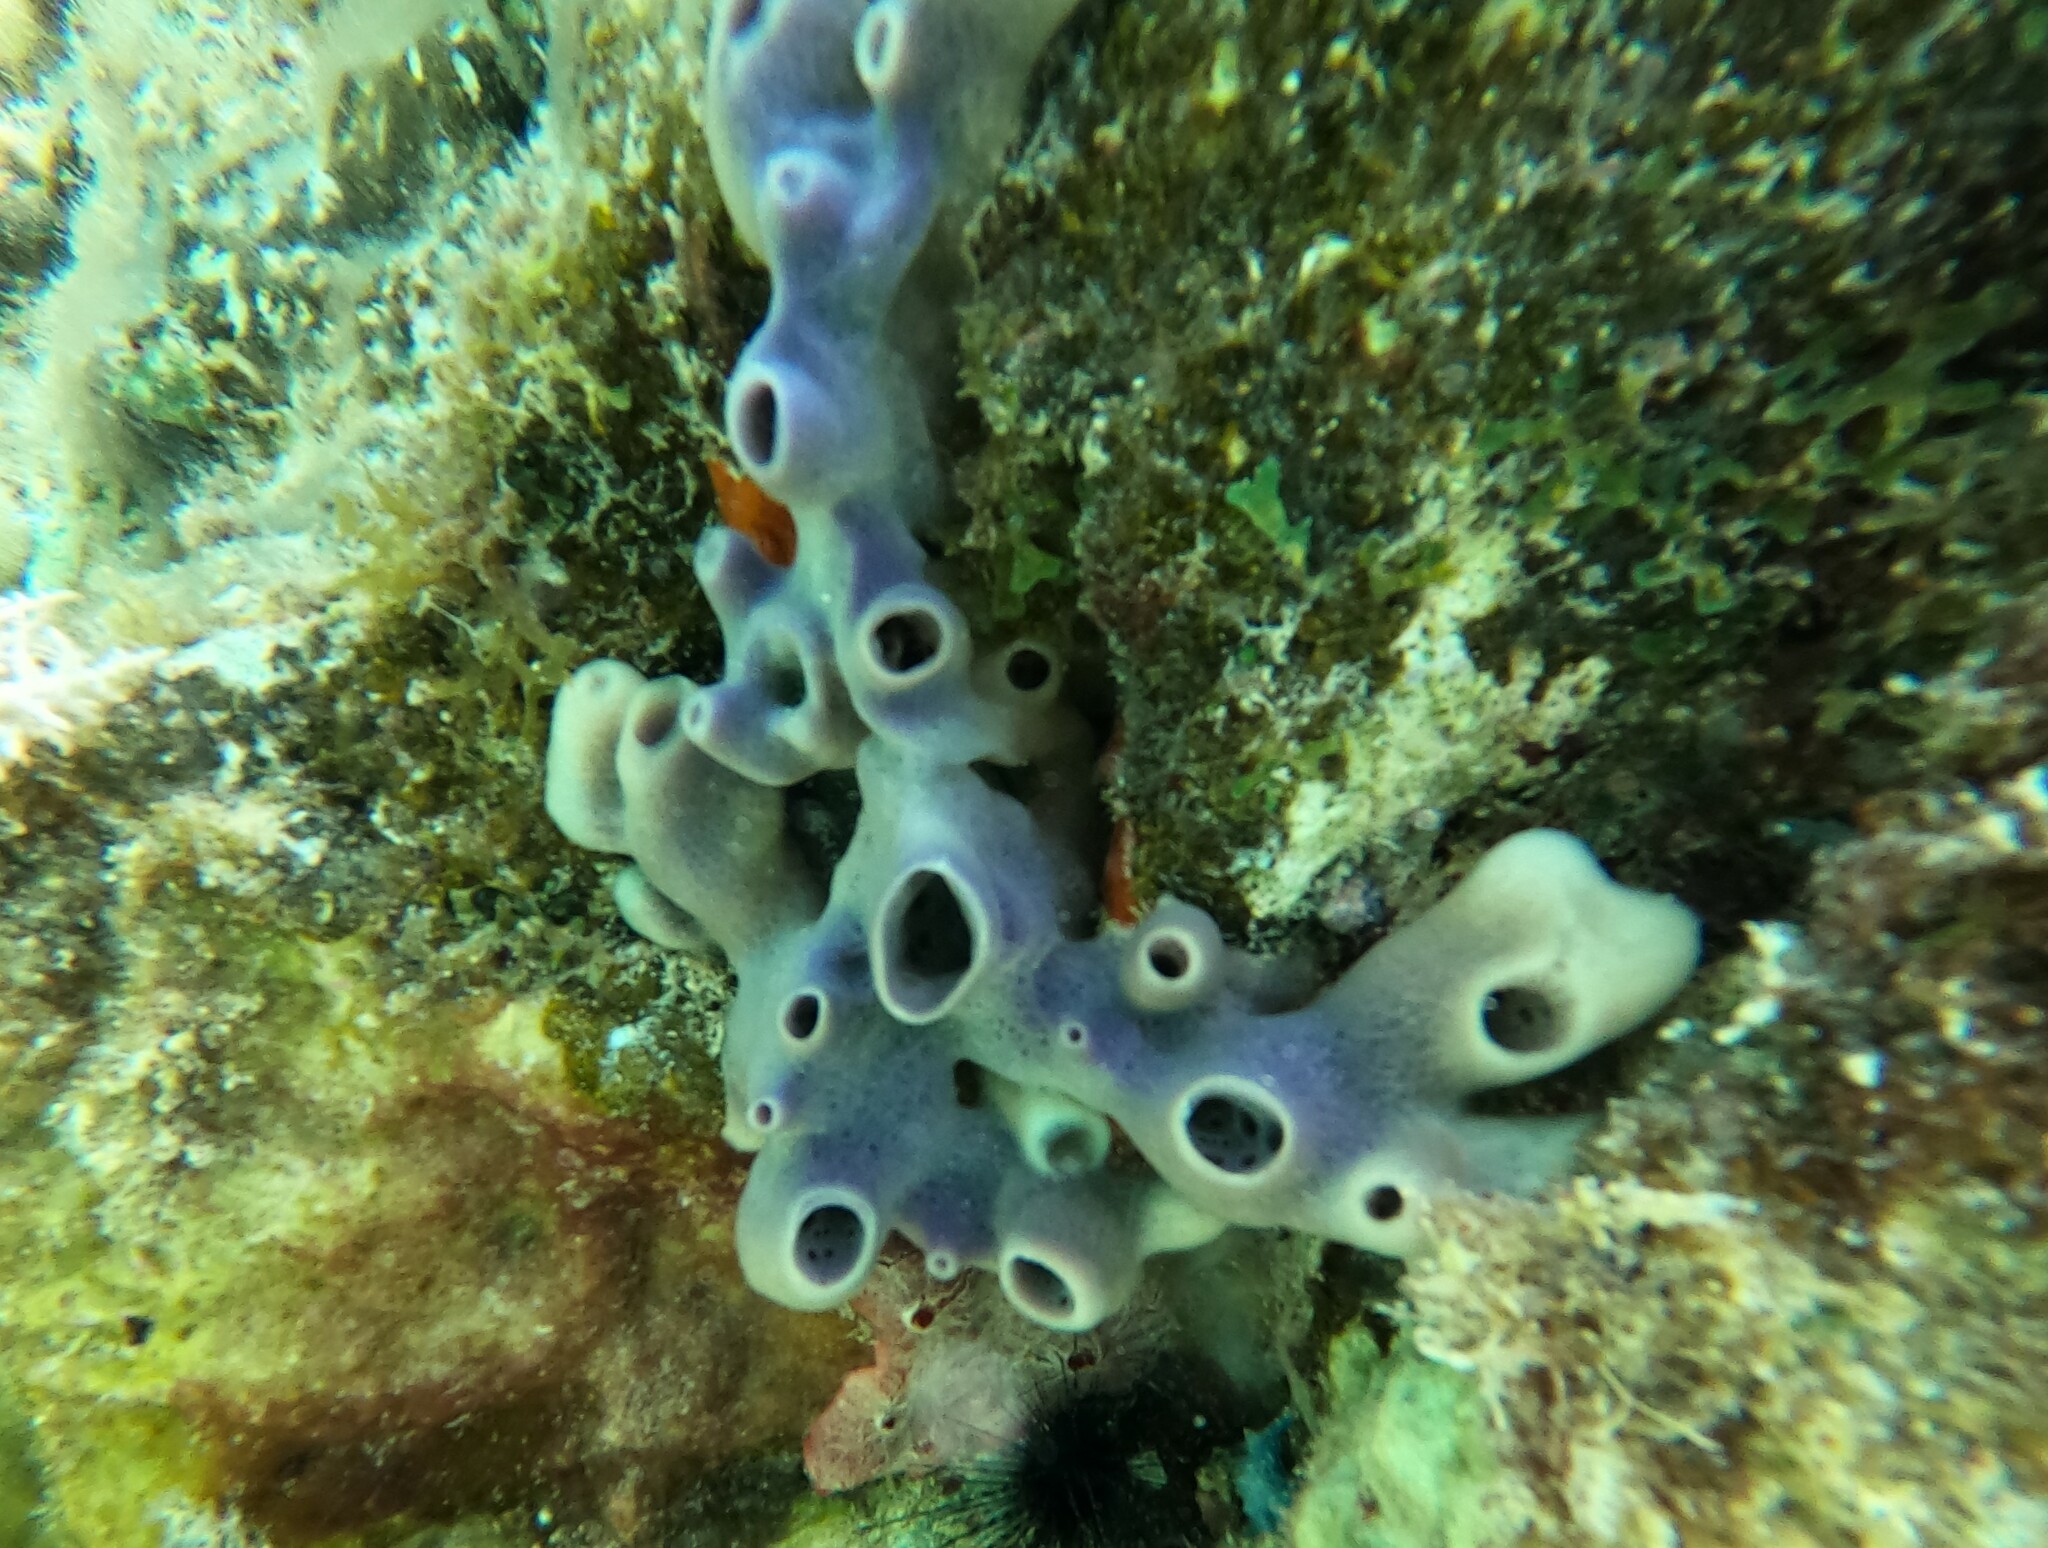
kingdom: Animalia
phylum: Porifera
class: Demospongiae
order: Haplosclerida
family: Callyspongiidae
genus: Callyspongia
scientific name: Callyspongia fallax
